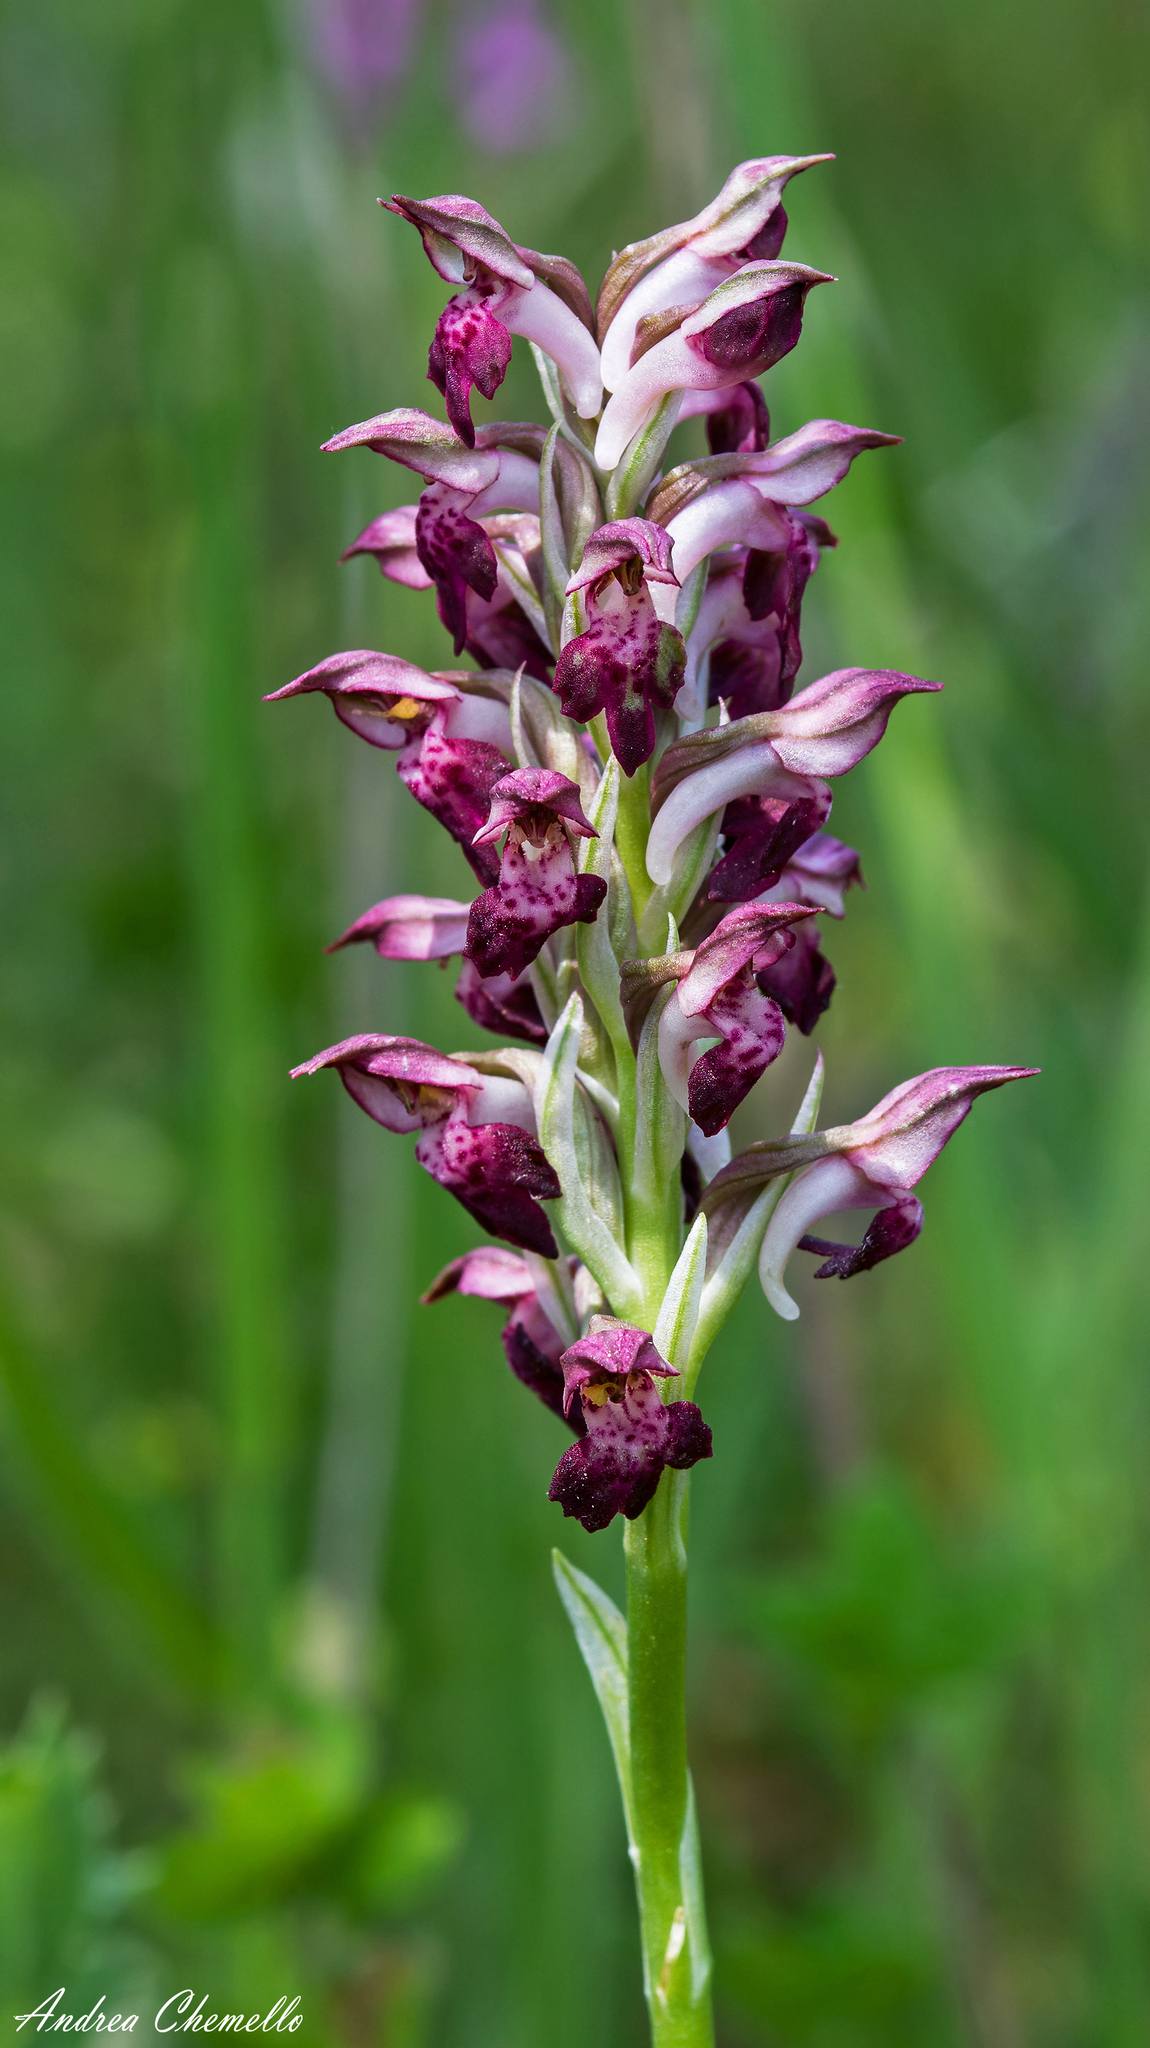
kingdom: Plantae
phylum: Tracheophyta
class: Liliopsida
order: Asparagales
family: Orchidaceae
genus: Anacamptis
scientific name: Anacamptis coriophora
